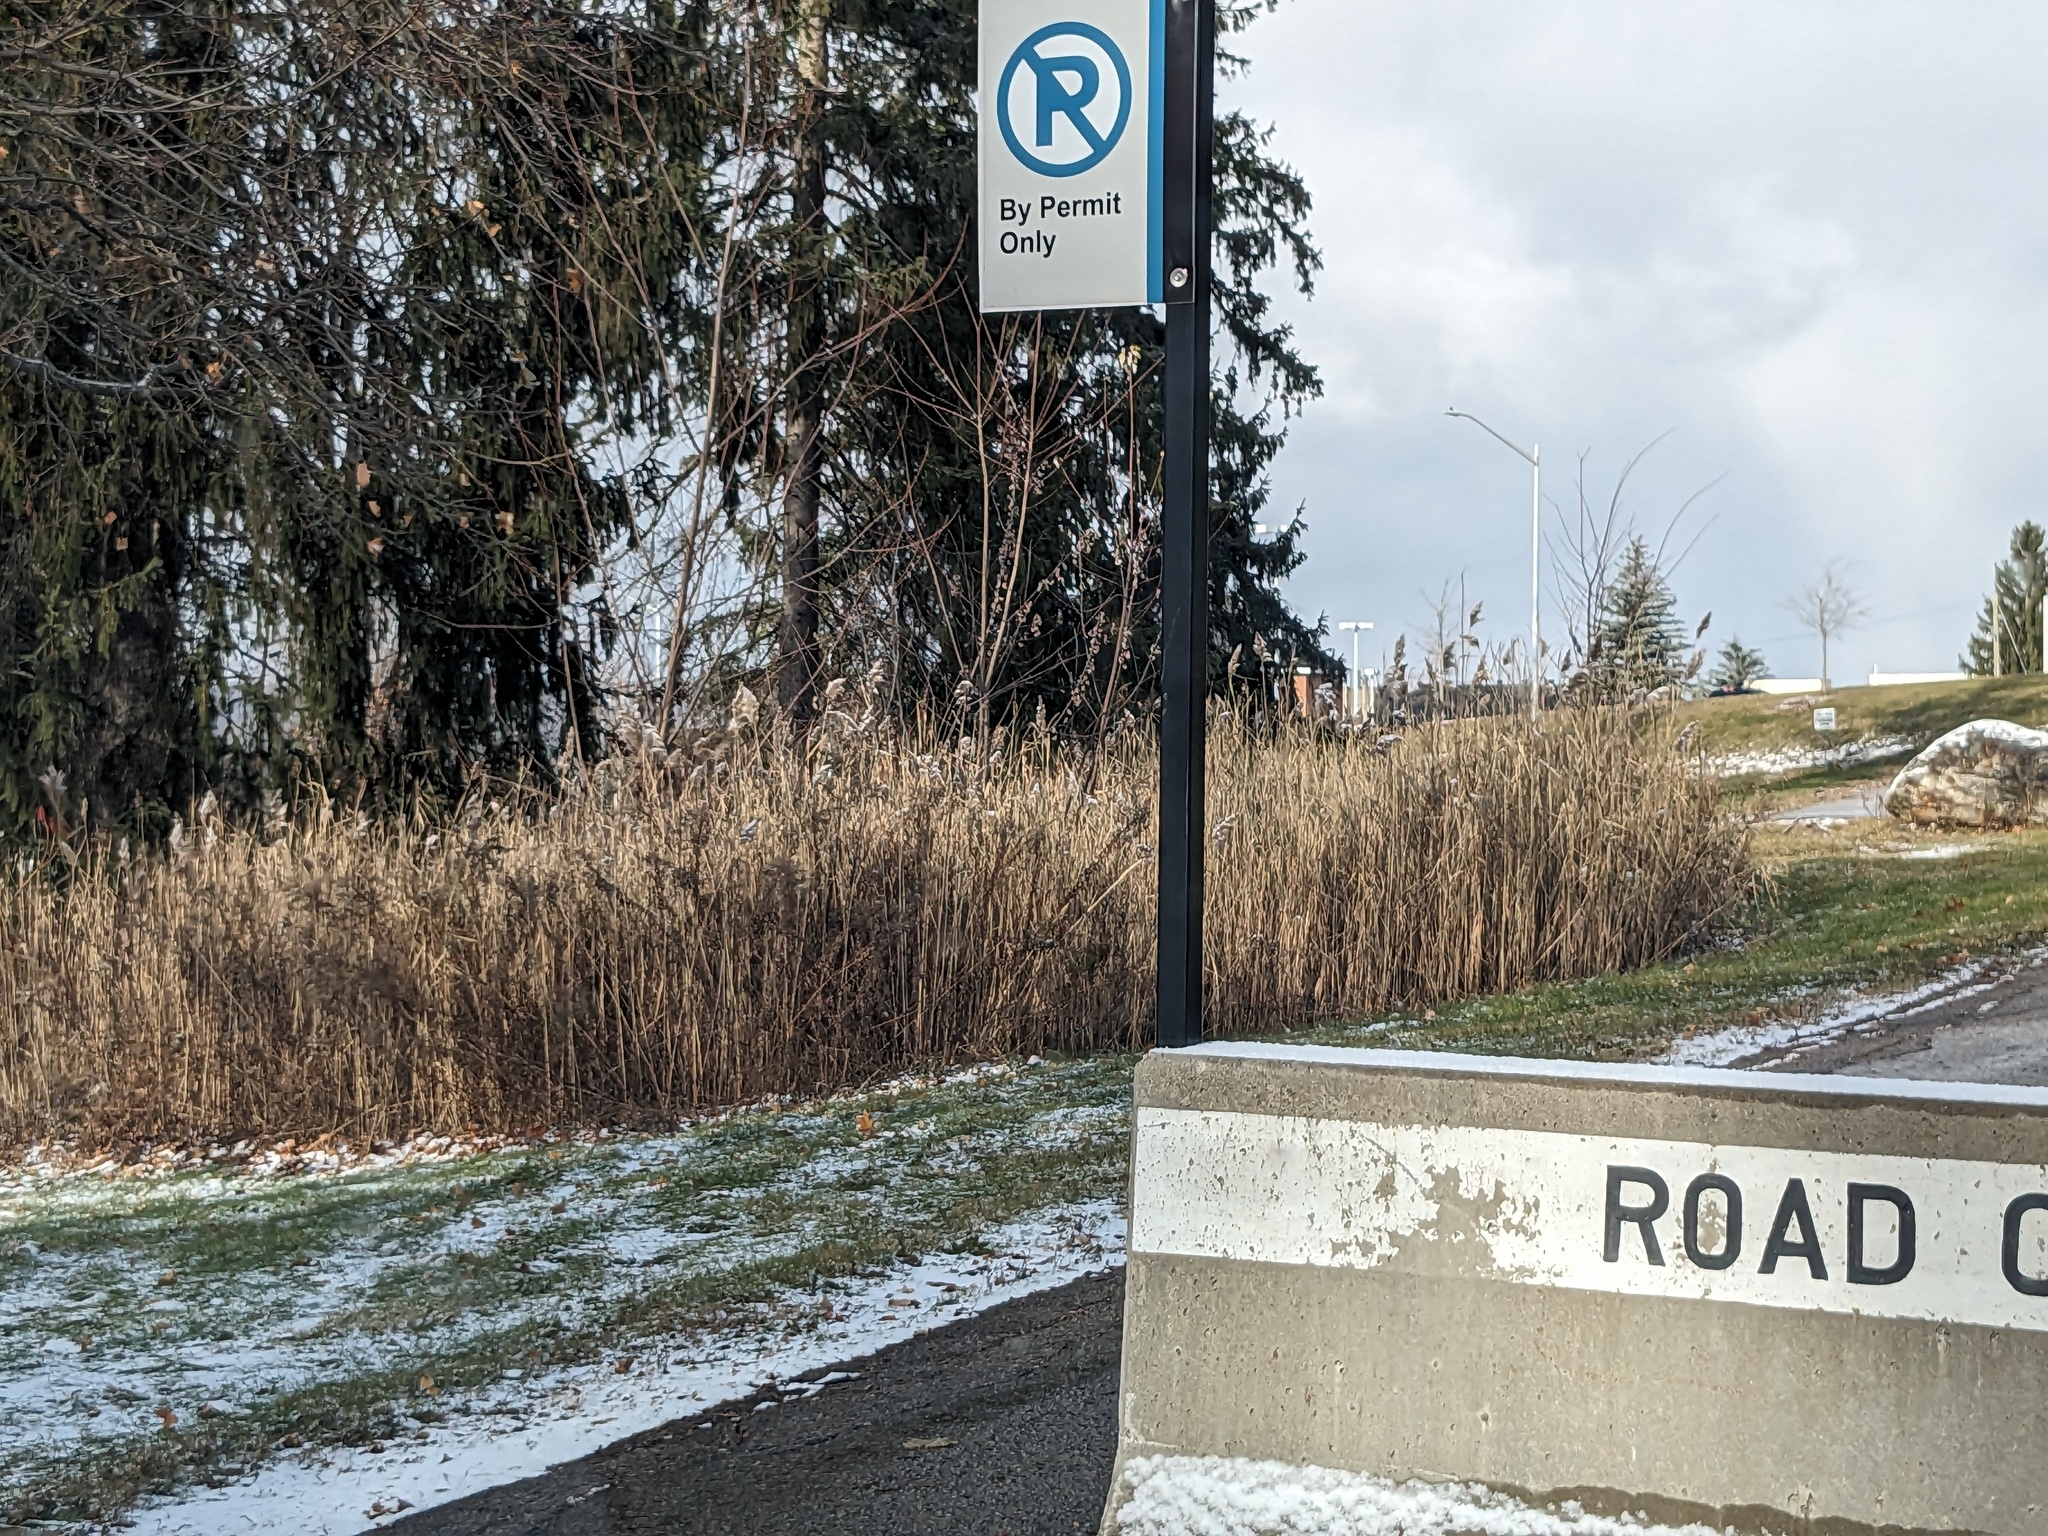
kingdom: Plantae
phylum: Tracheophyta
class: Liliopsida
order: Poales
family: Poaceae
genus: Phragmites
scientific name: Phragmites australis
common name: Common reed
